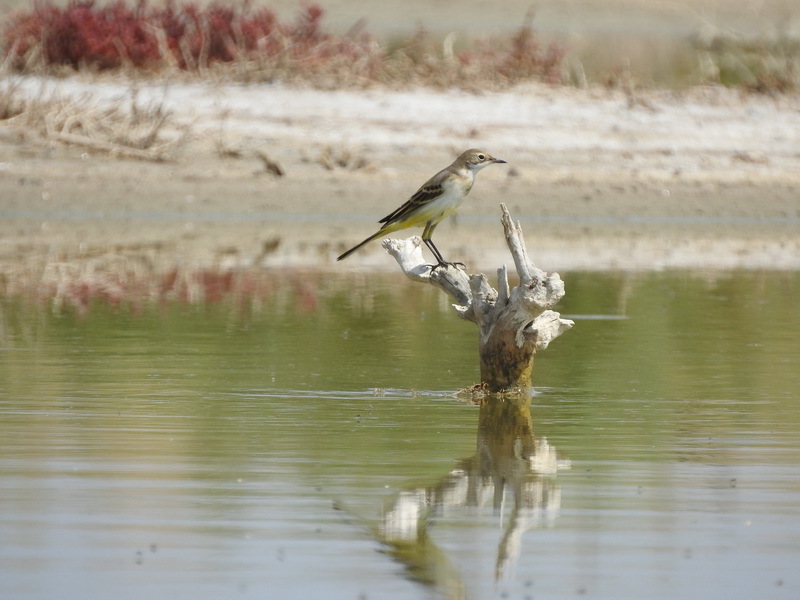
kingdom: Animalia
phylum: Chordata
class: Aves
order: Passeriformes
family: Motacillidae
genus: Motacilla
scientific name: Motacilla flava
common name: Western yellow wagtail
